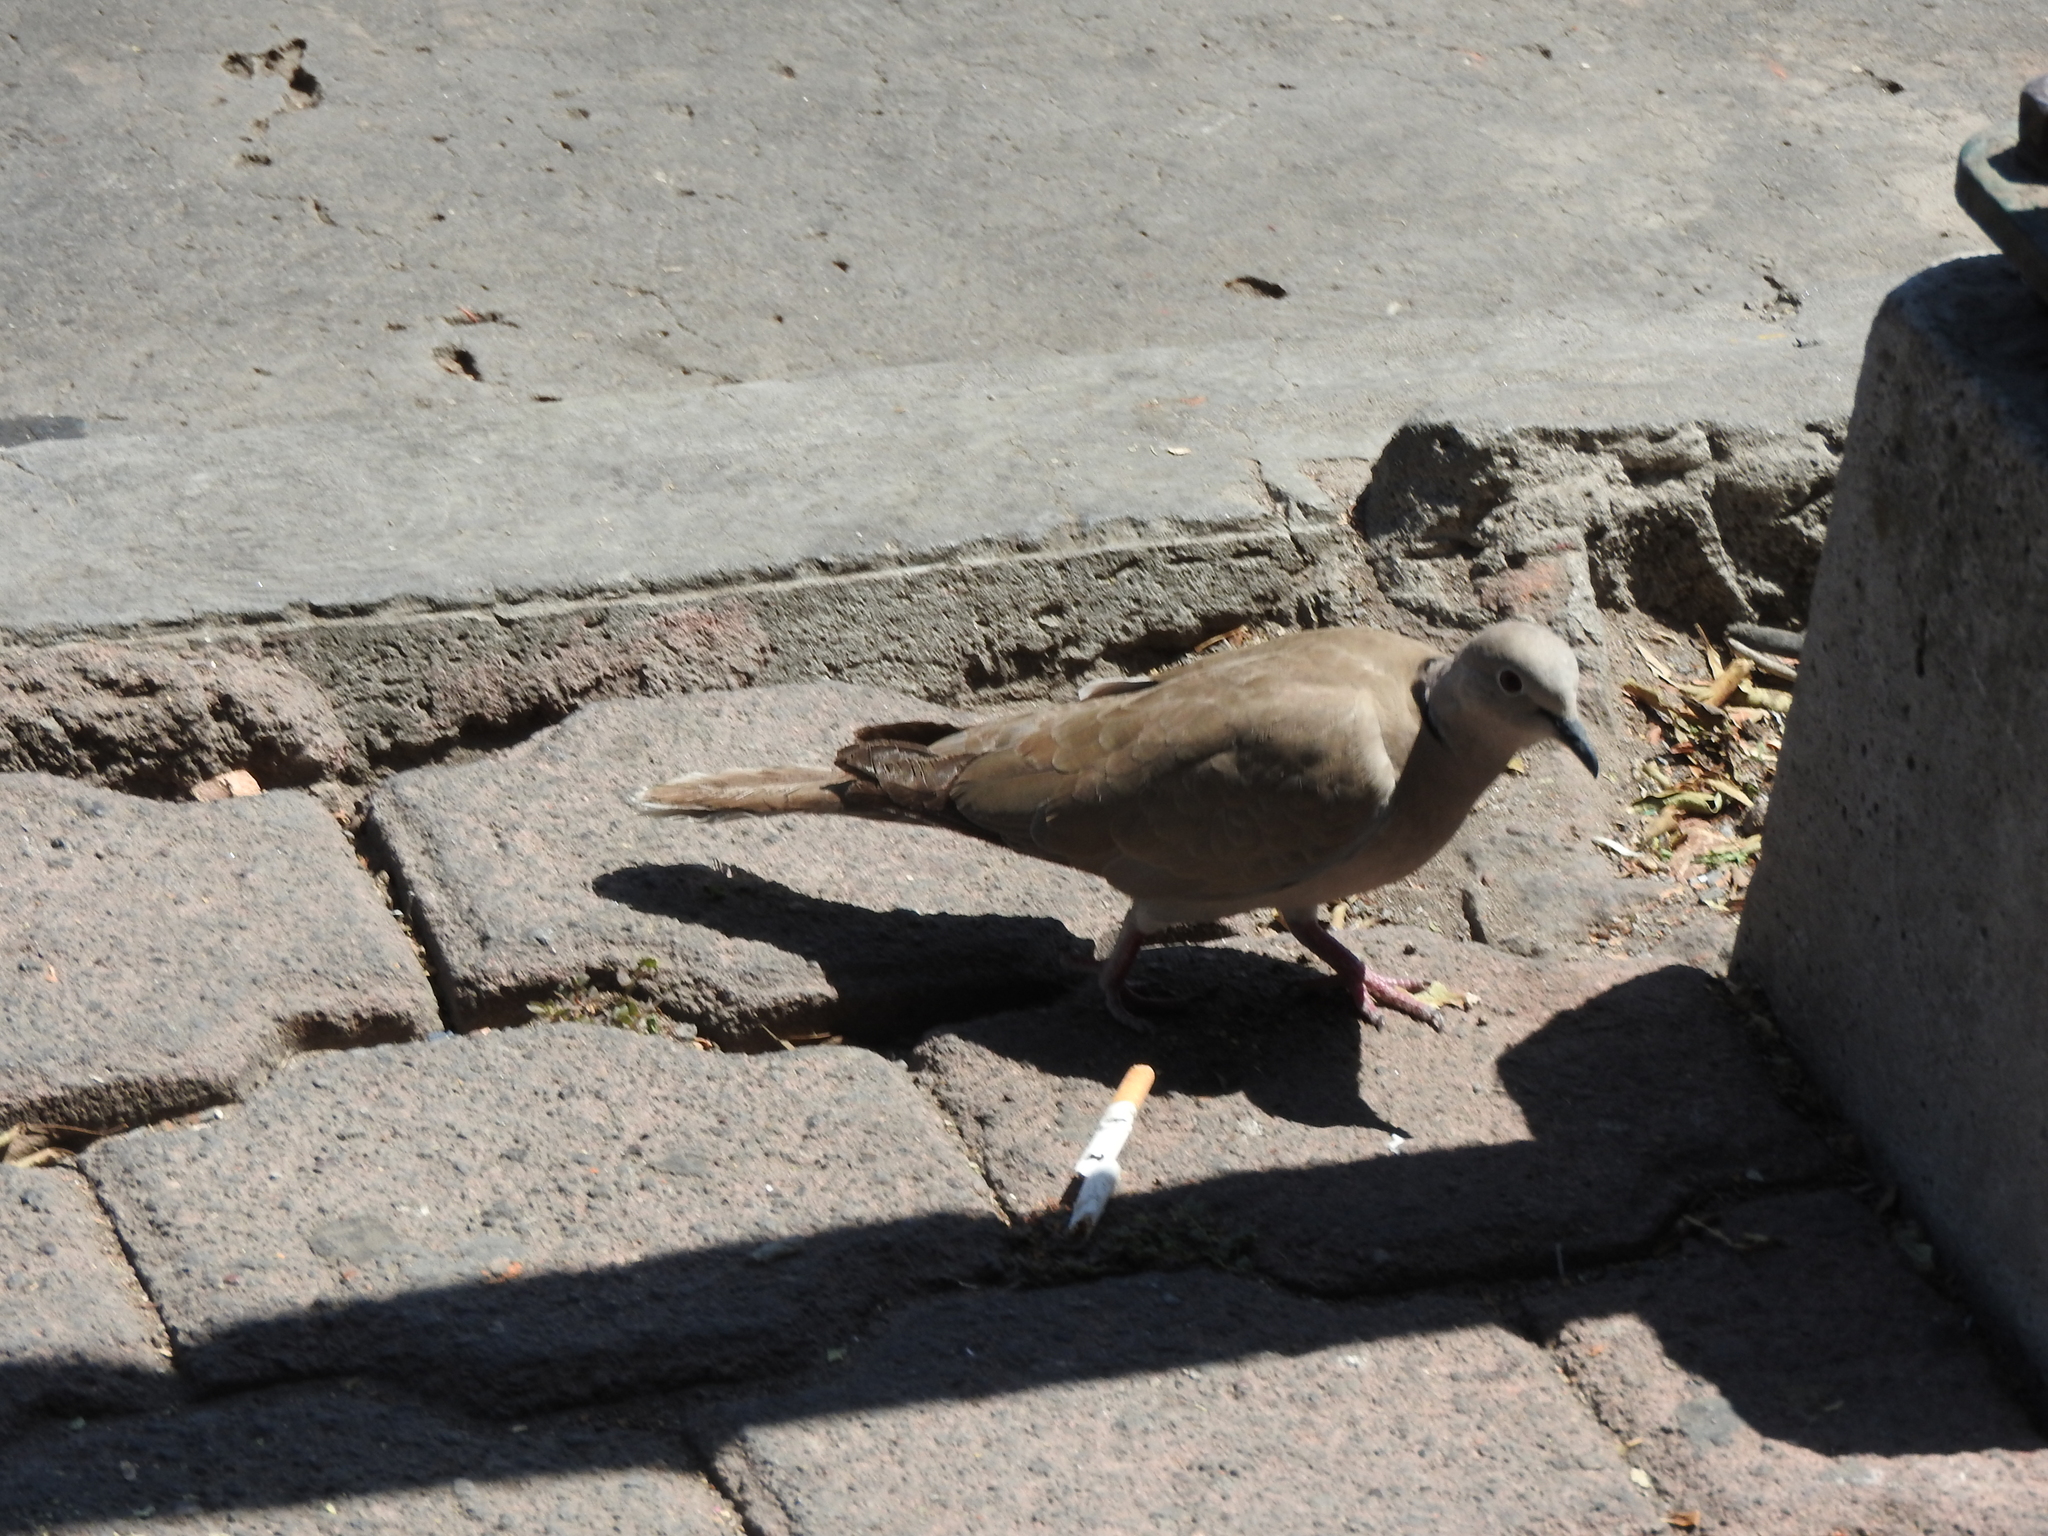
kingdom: Animalia
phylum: Chordata
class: Aves
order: Columbiformes
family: Columbidae
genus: Streptopelia
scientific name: Streptopelia decaocto
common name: Eurasian collared dove
